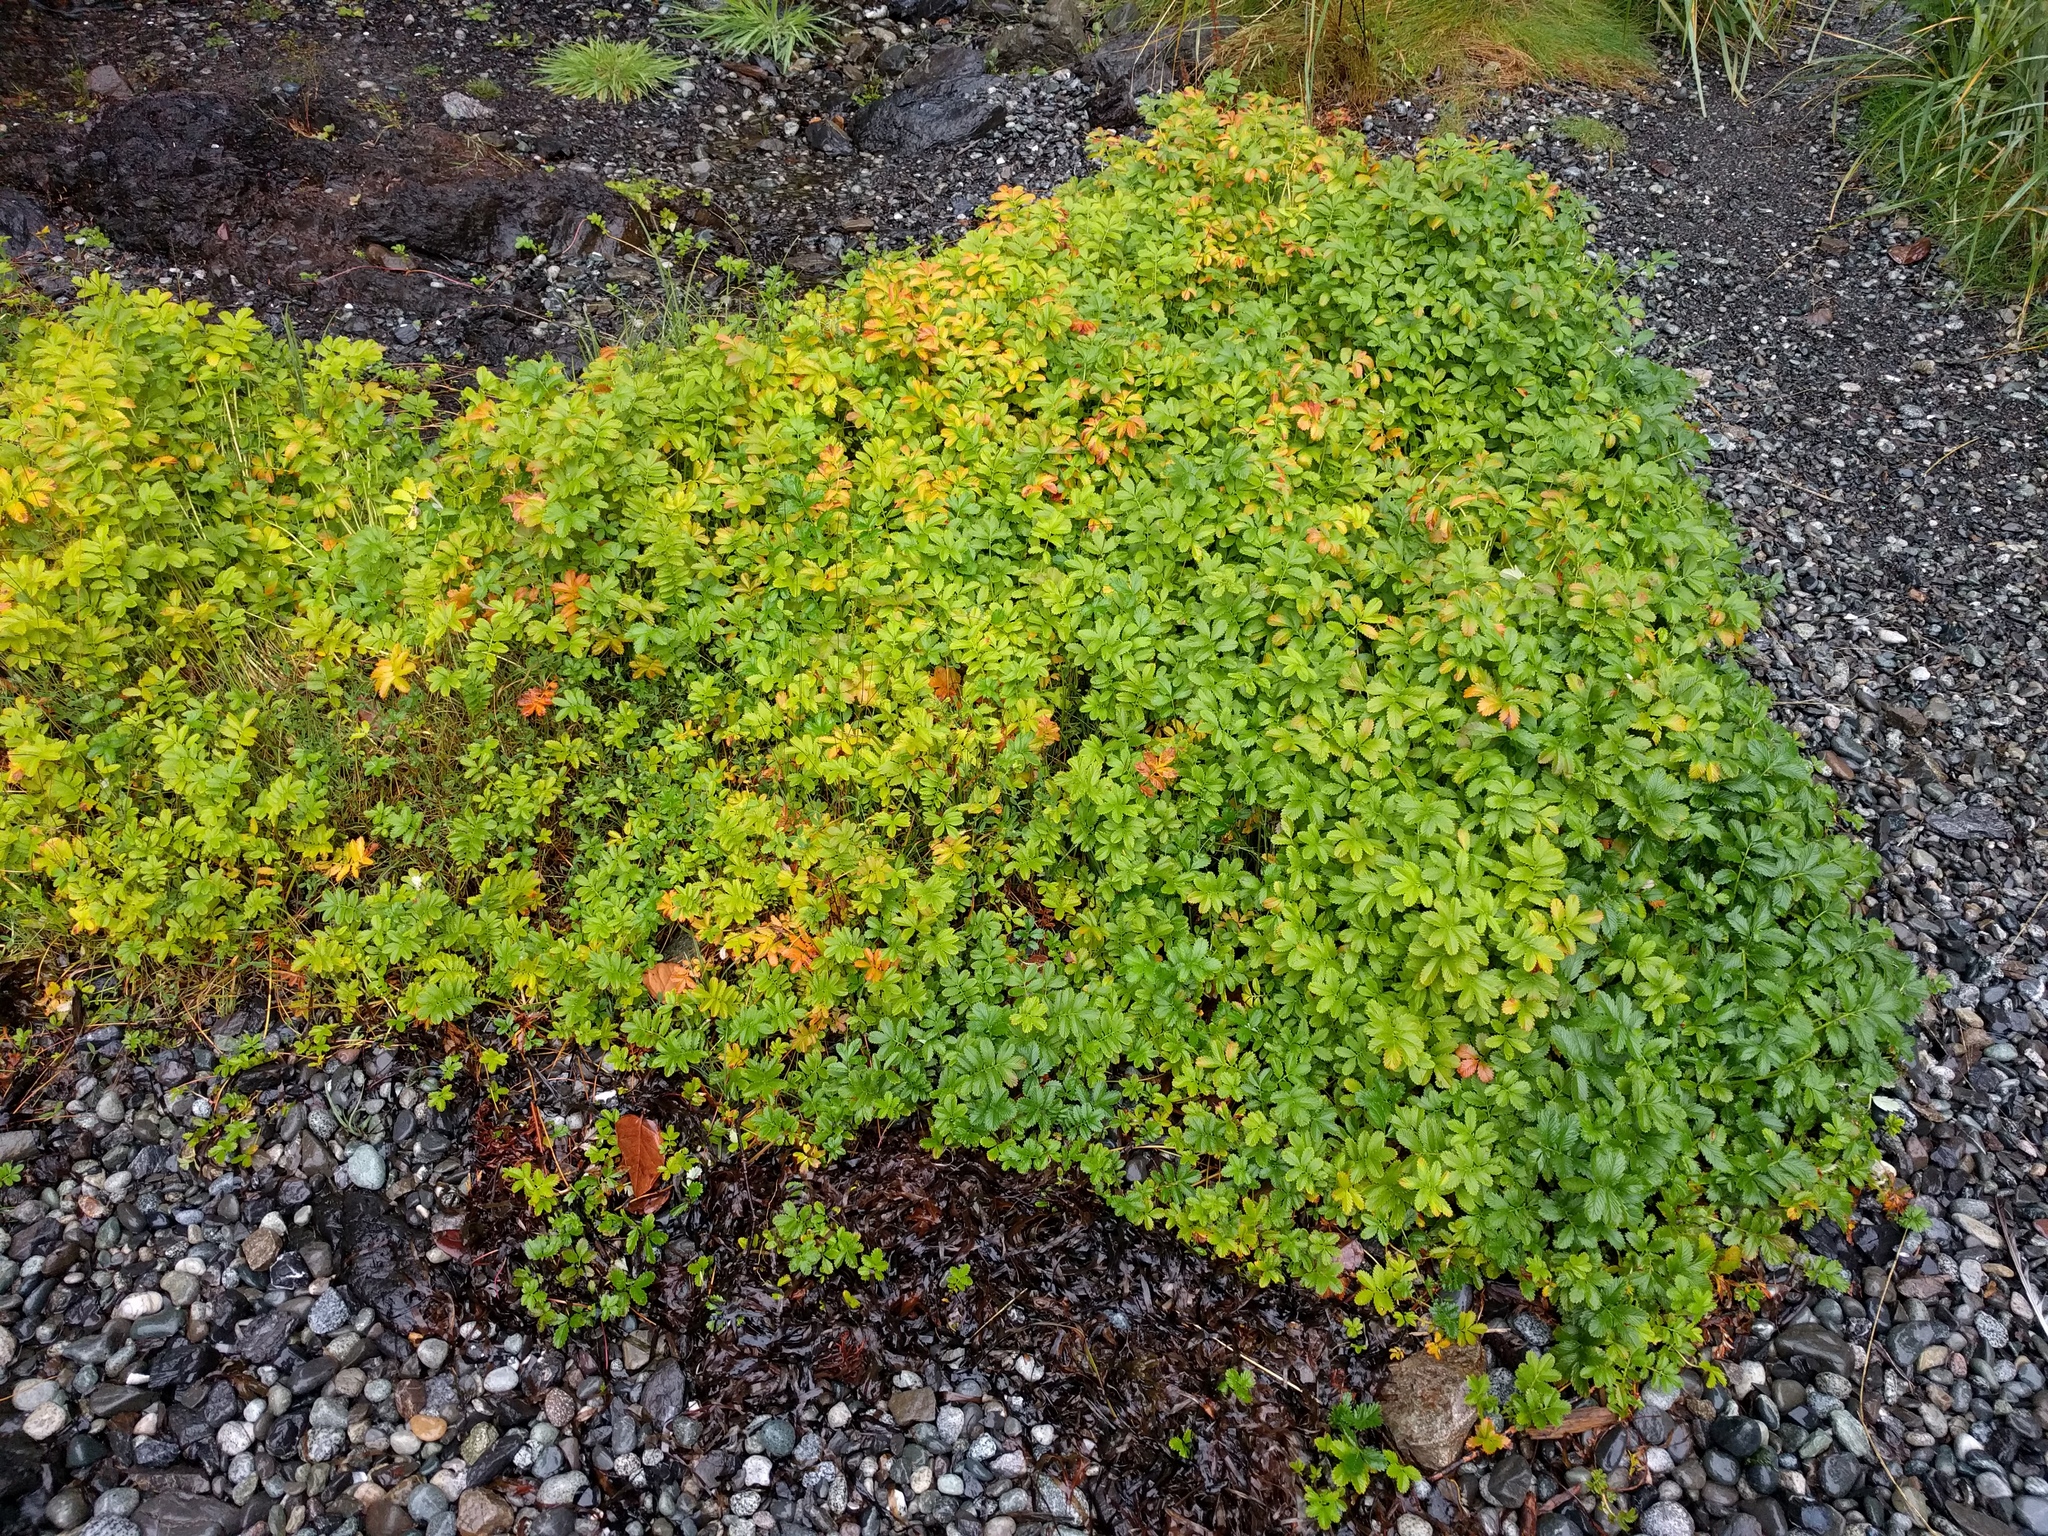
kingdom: Plantae
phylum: Tracheophyta
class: Magnoliopsida
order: Rosales
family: Rosaceae
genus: Argentina
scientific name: Argentina anserina
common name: Common silverweed
